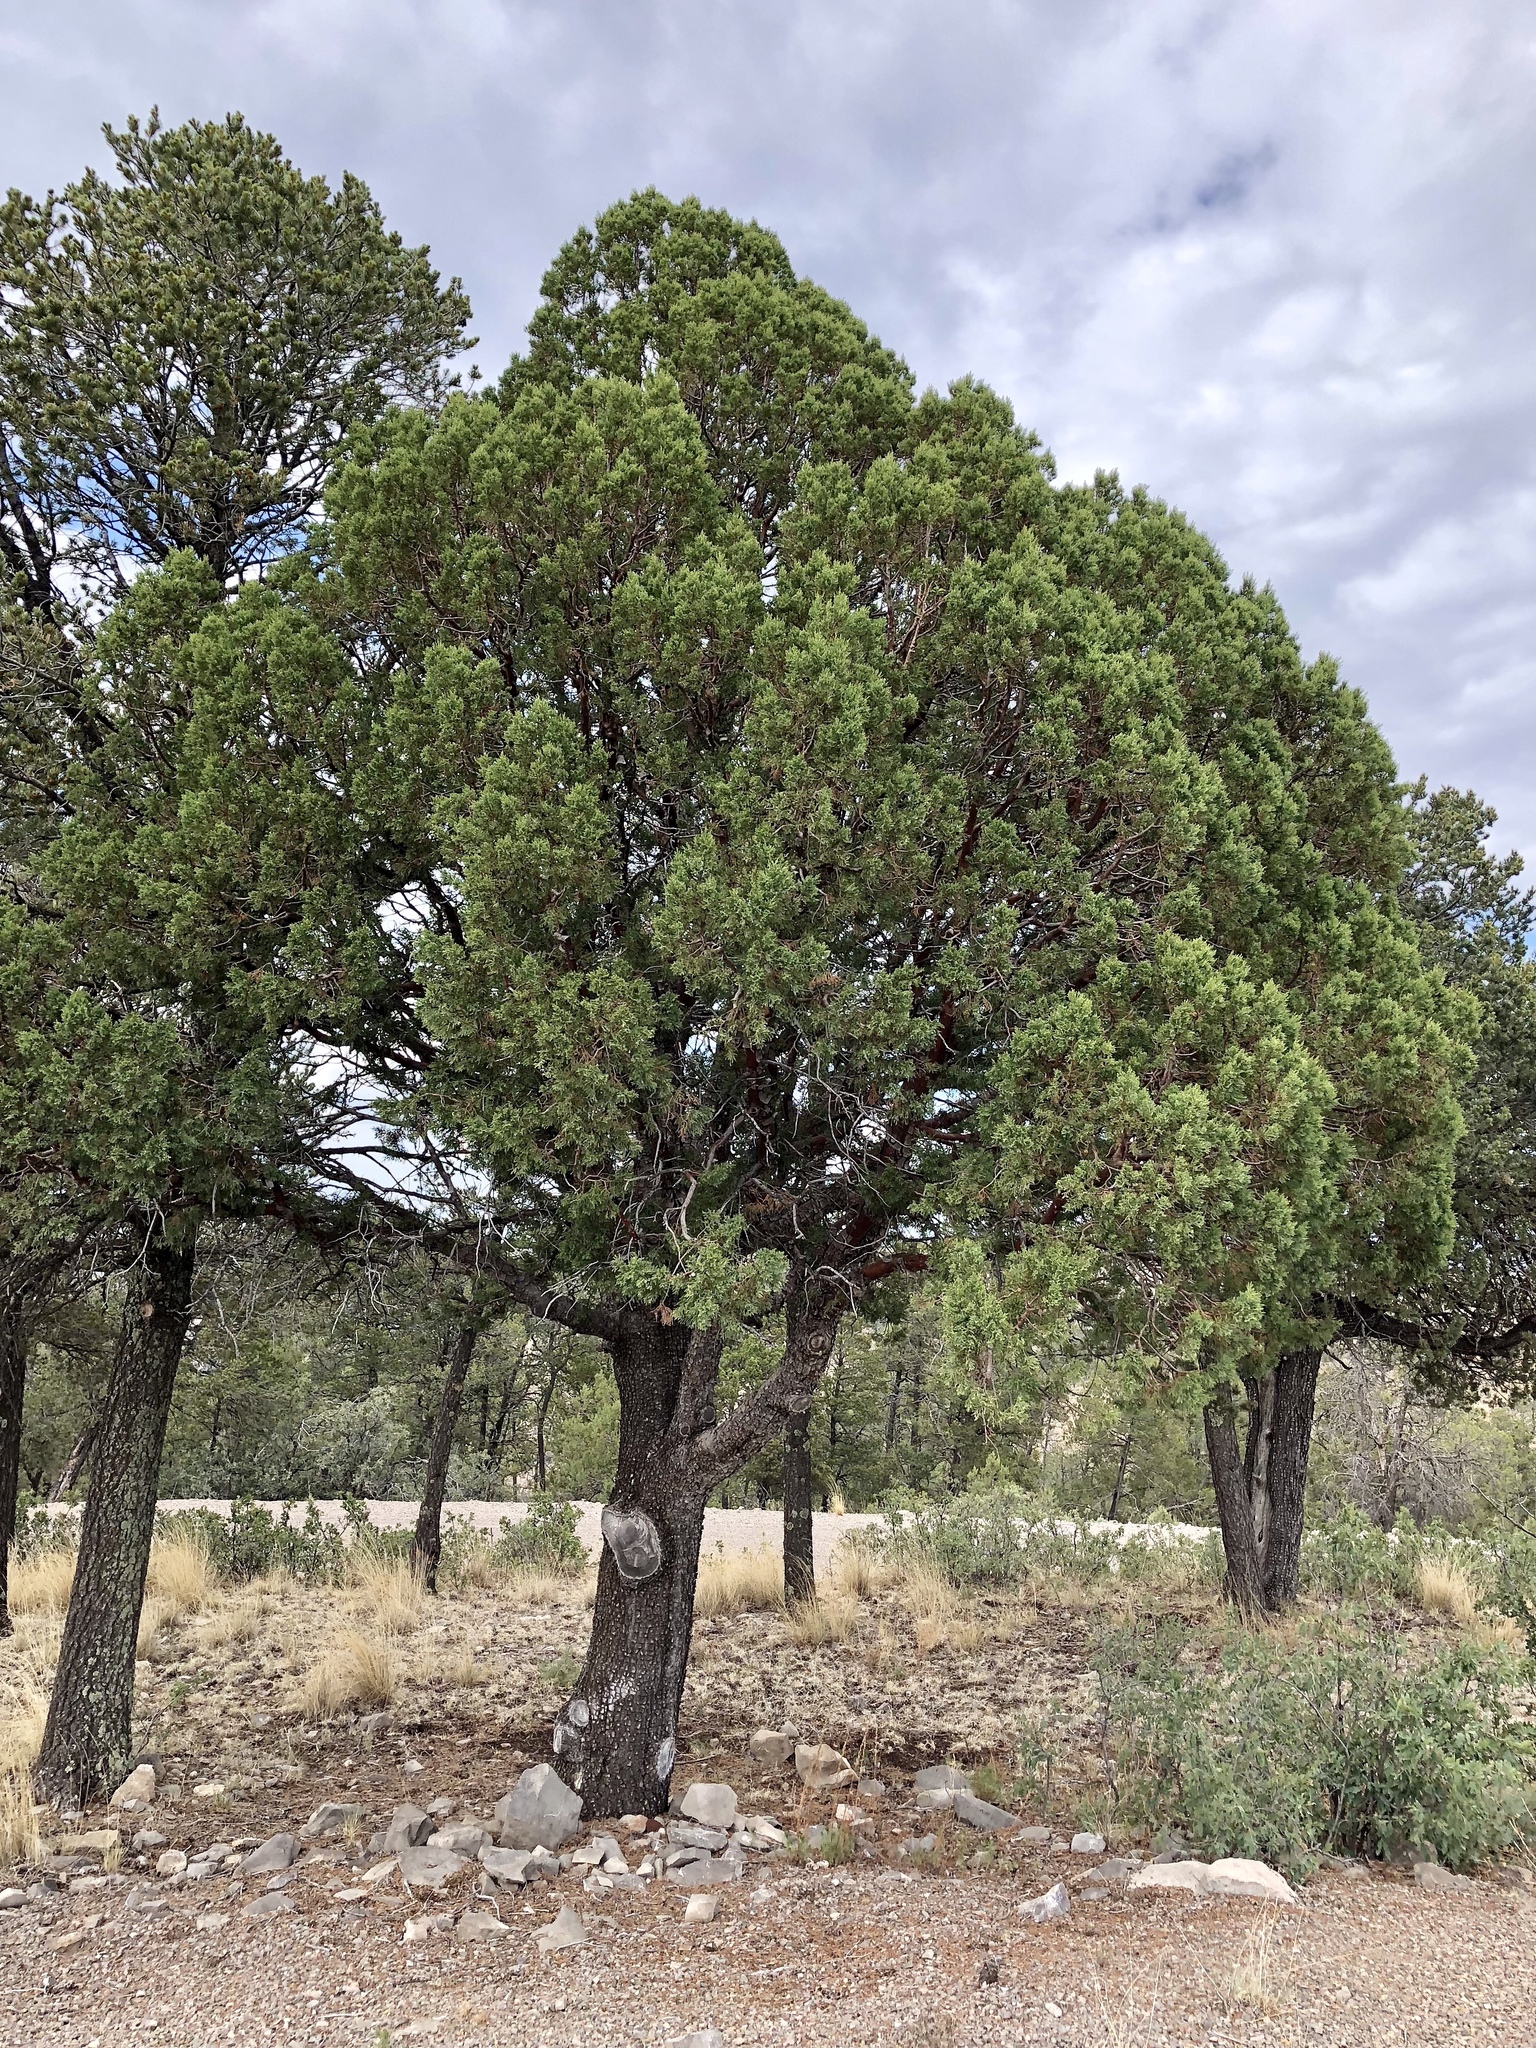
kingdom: Plantae
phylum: Tracheophyta
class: Pinopsida
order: Pinales
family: Cupressaceae
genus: Juniperus
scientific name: Juniperus deppeana
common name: Alligator juniper
